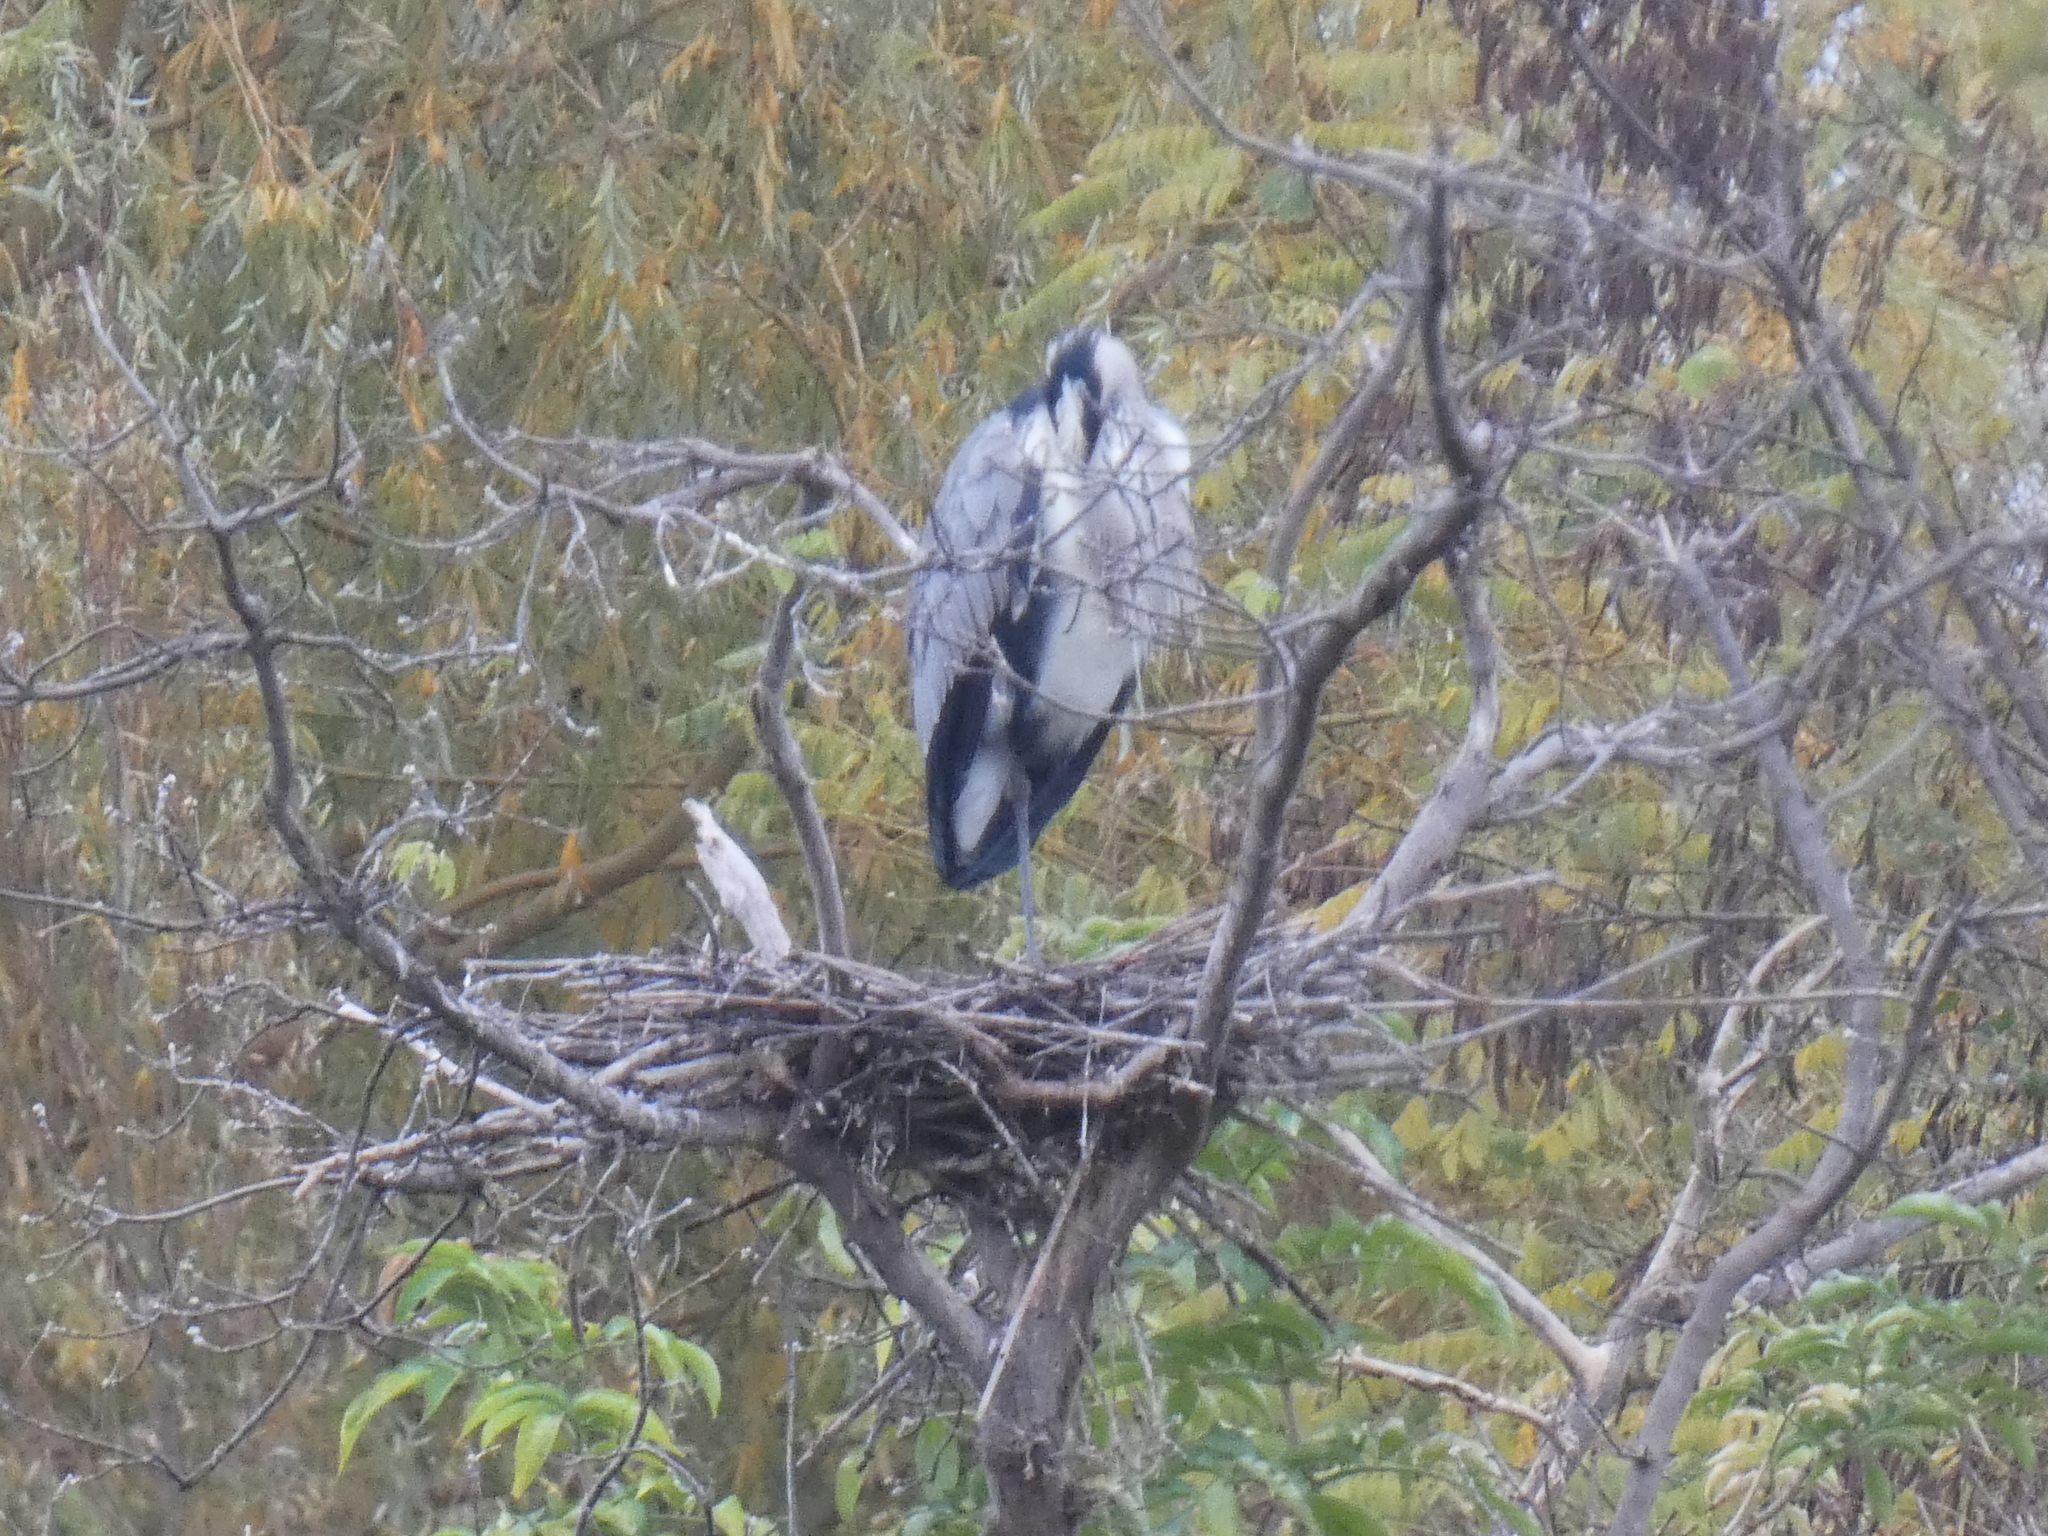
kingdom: Animalia
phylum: Chordata
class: Aves
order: Pelecaniformes
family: Ardeidae
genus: Ardea
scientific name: Ardea cinerea
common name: Grey heron
